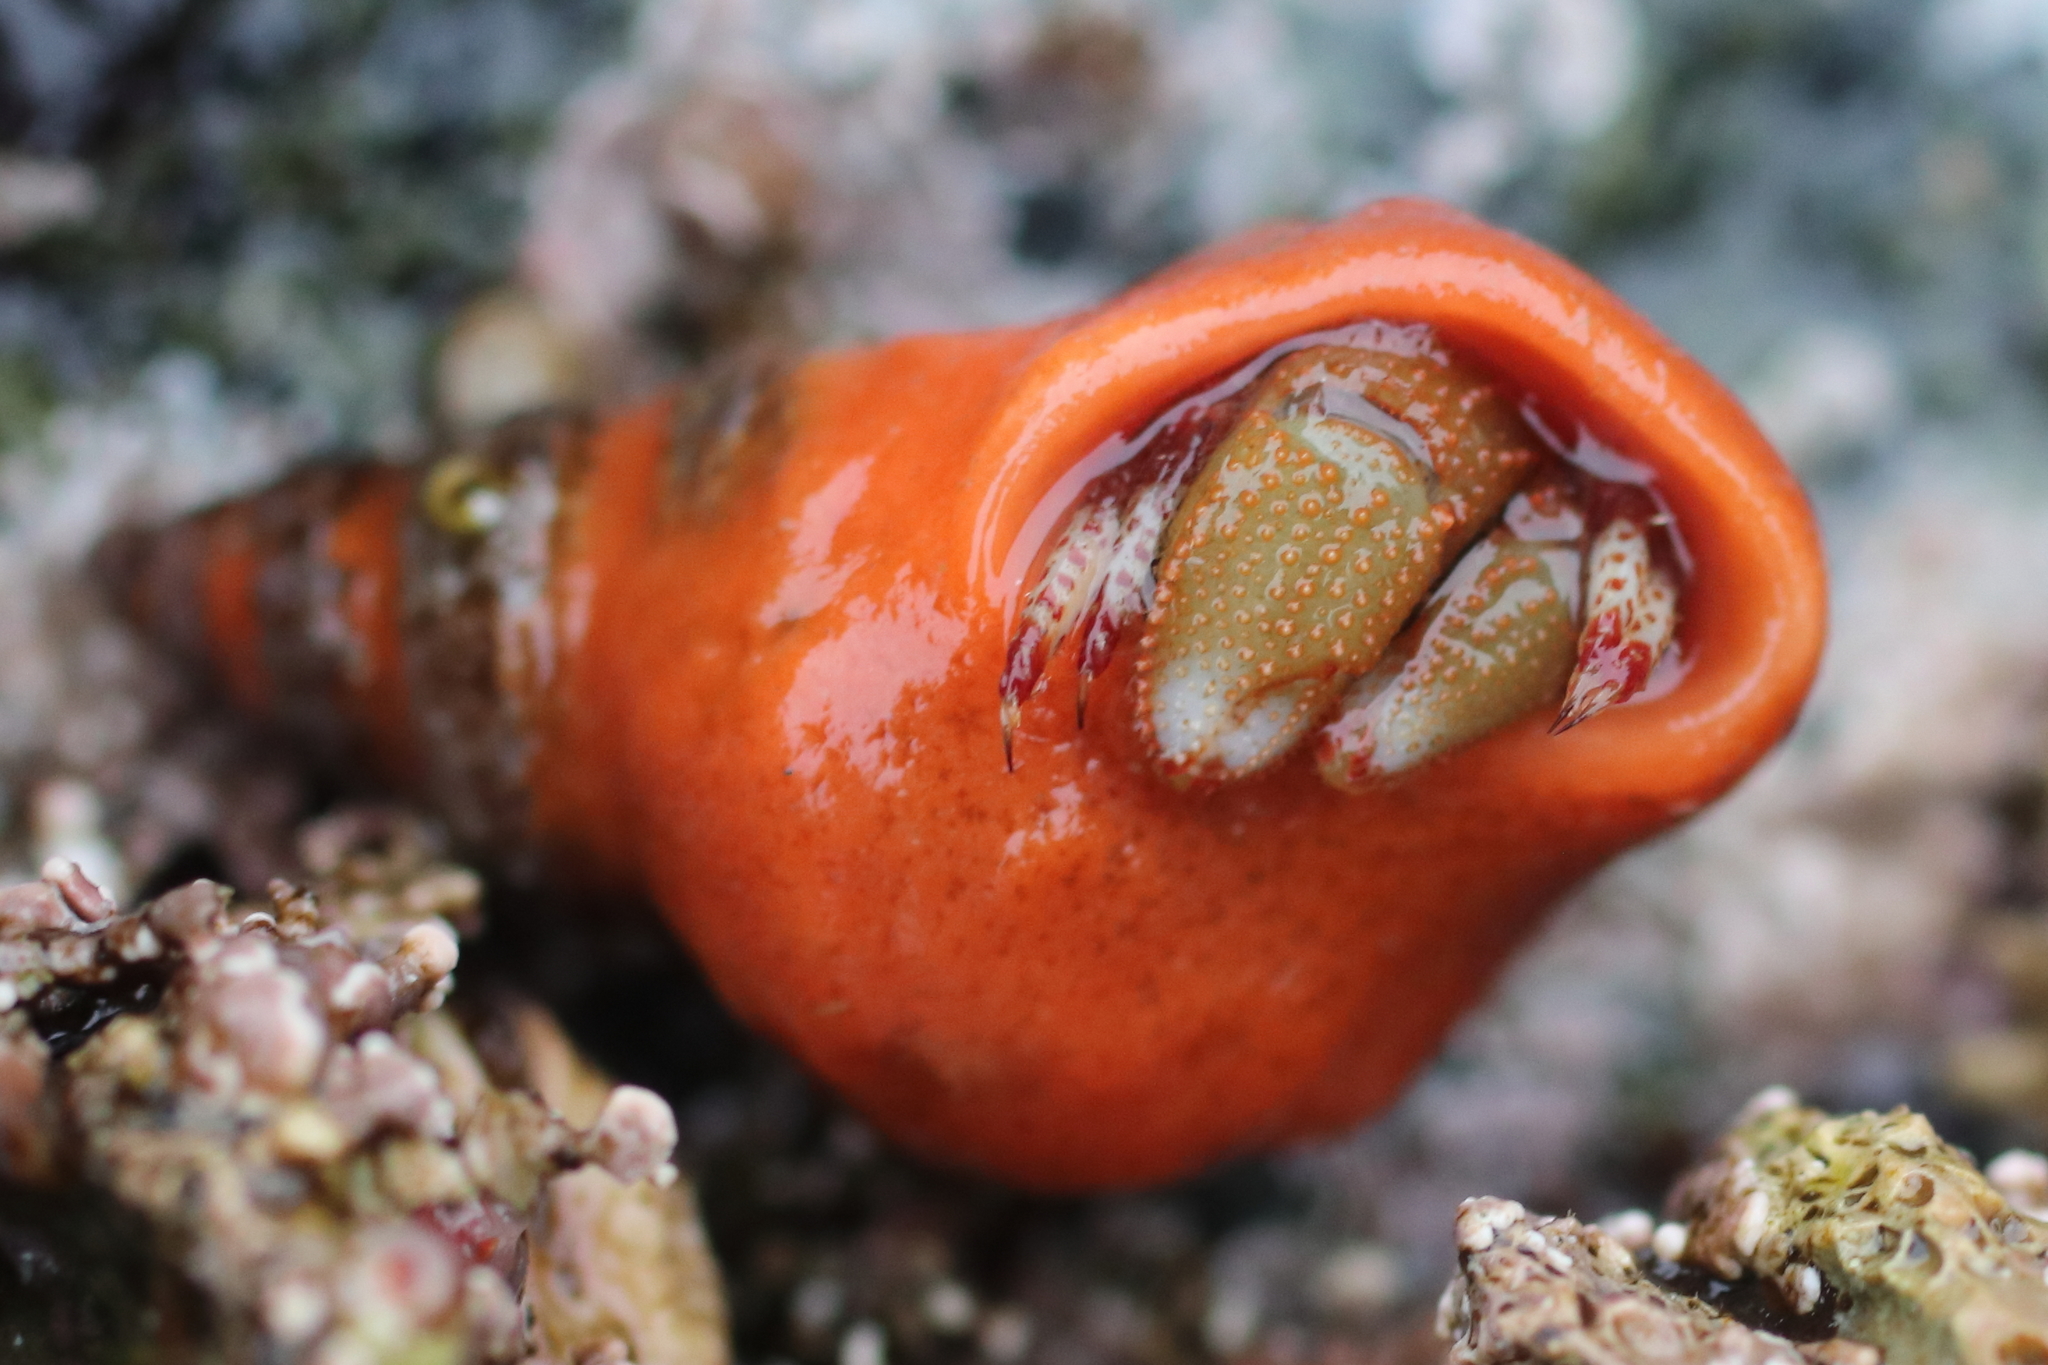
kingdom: Animalia
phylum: Arthropoda
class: Malacostraca
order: Decapoda
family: Paguridae
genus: Pagurus
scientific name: Pagurus beringanus
